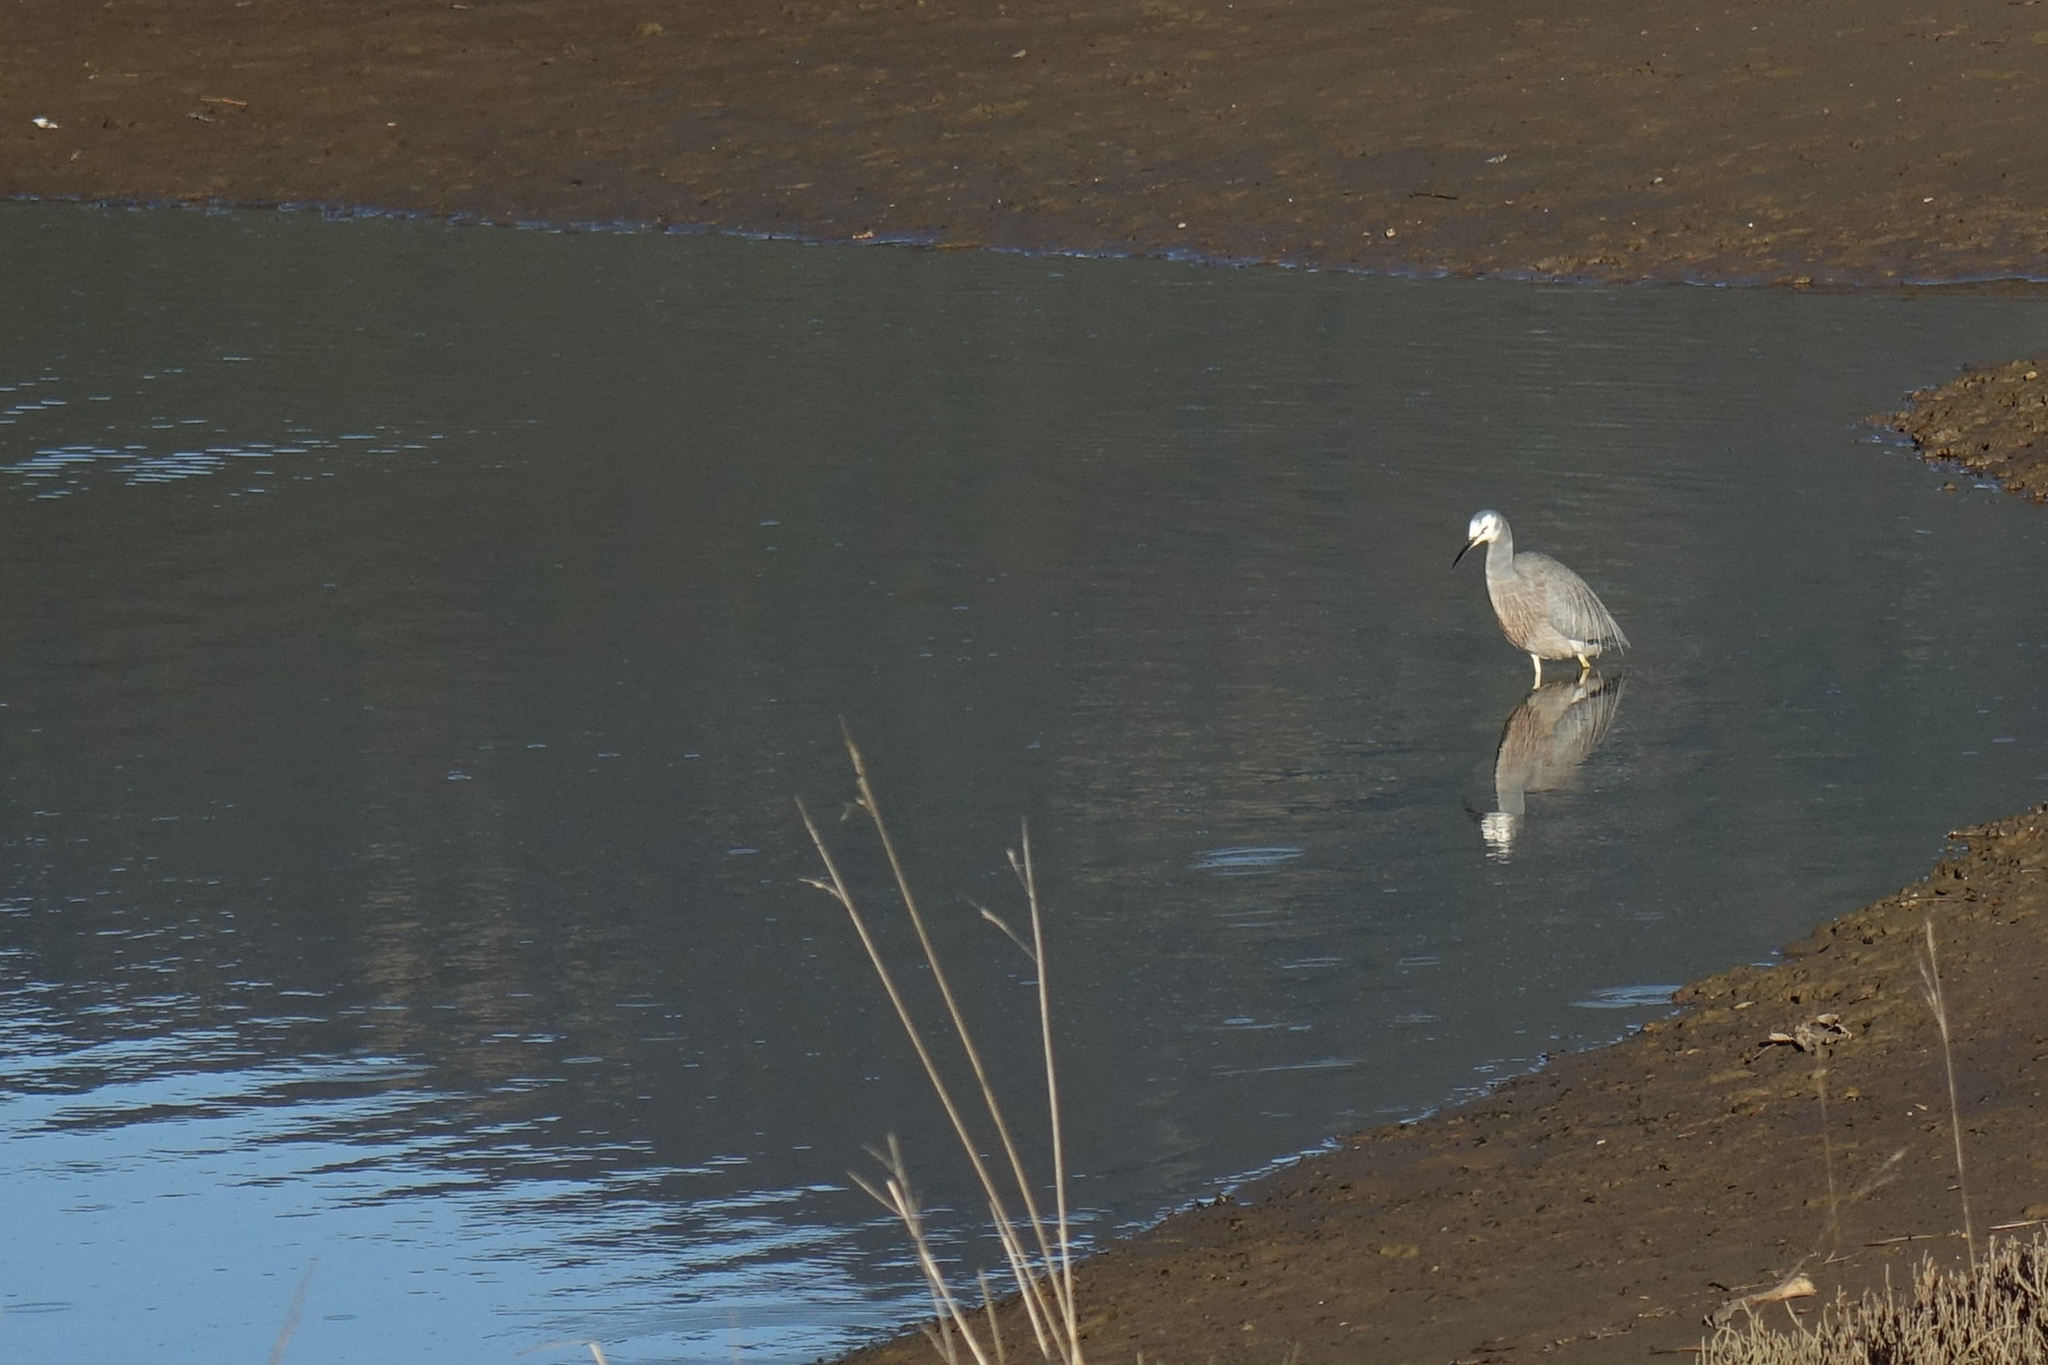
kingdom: Animalia
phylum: Chordata
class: Aves
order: Pelecaniformes
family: Ardeidae
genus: Egretta
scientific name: Egretta novaehollandiae
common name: White-faced heron
